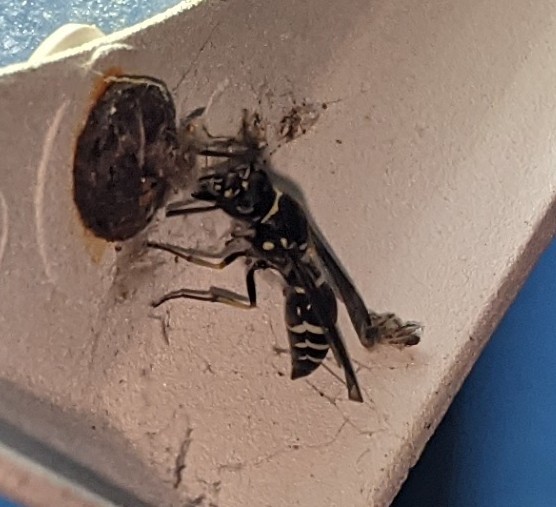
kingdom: Animalia
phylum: Arthropoda
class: Insecta
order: Hymenoptera
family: Vespidae
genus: Ancistrocerus
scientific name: Ancistrocerus
